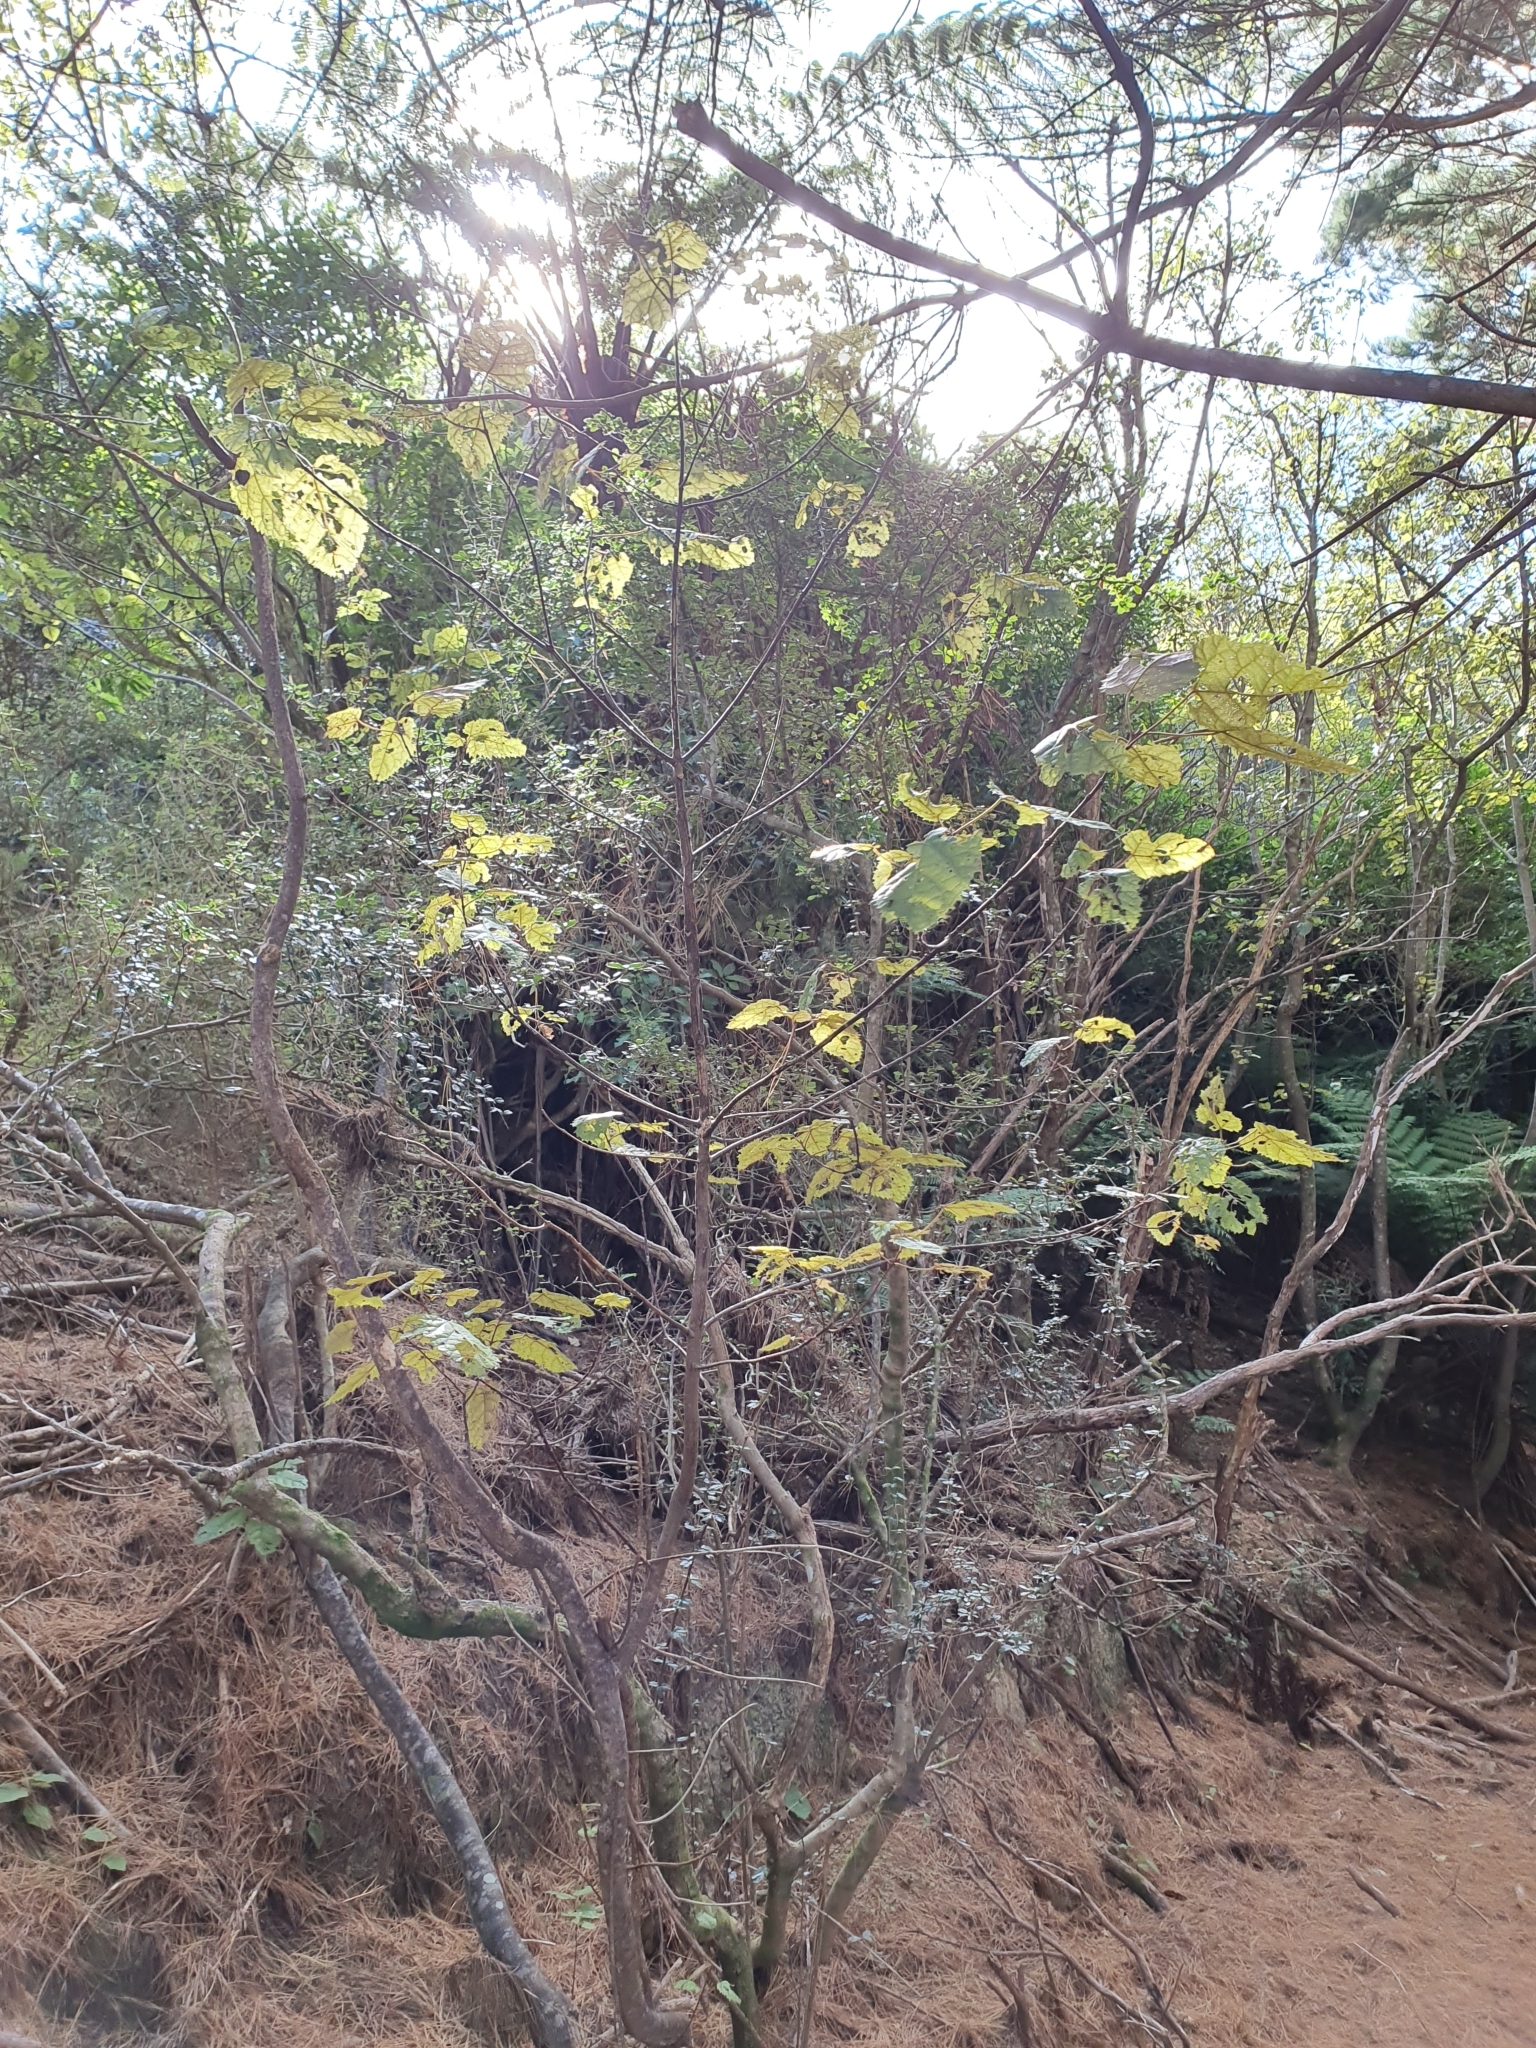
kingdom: Plantae
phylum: Tracheophyta
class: Magnoliopsida
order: Oxalidales
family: Elaeocarpaceae
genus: Aristotelia
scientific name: Aristotelia serrata
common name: New zealand wineberry
